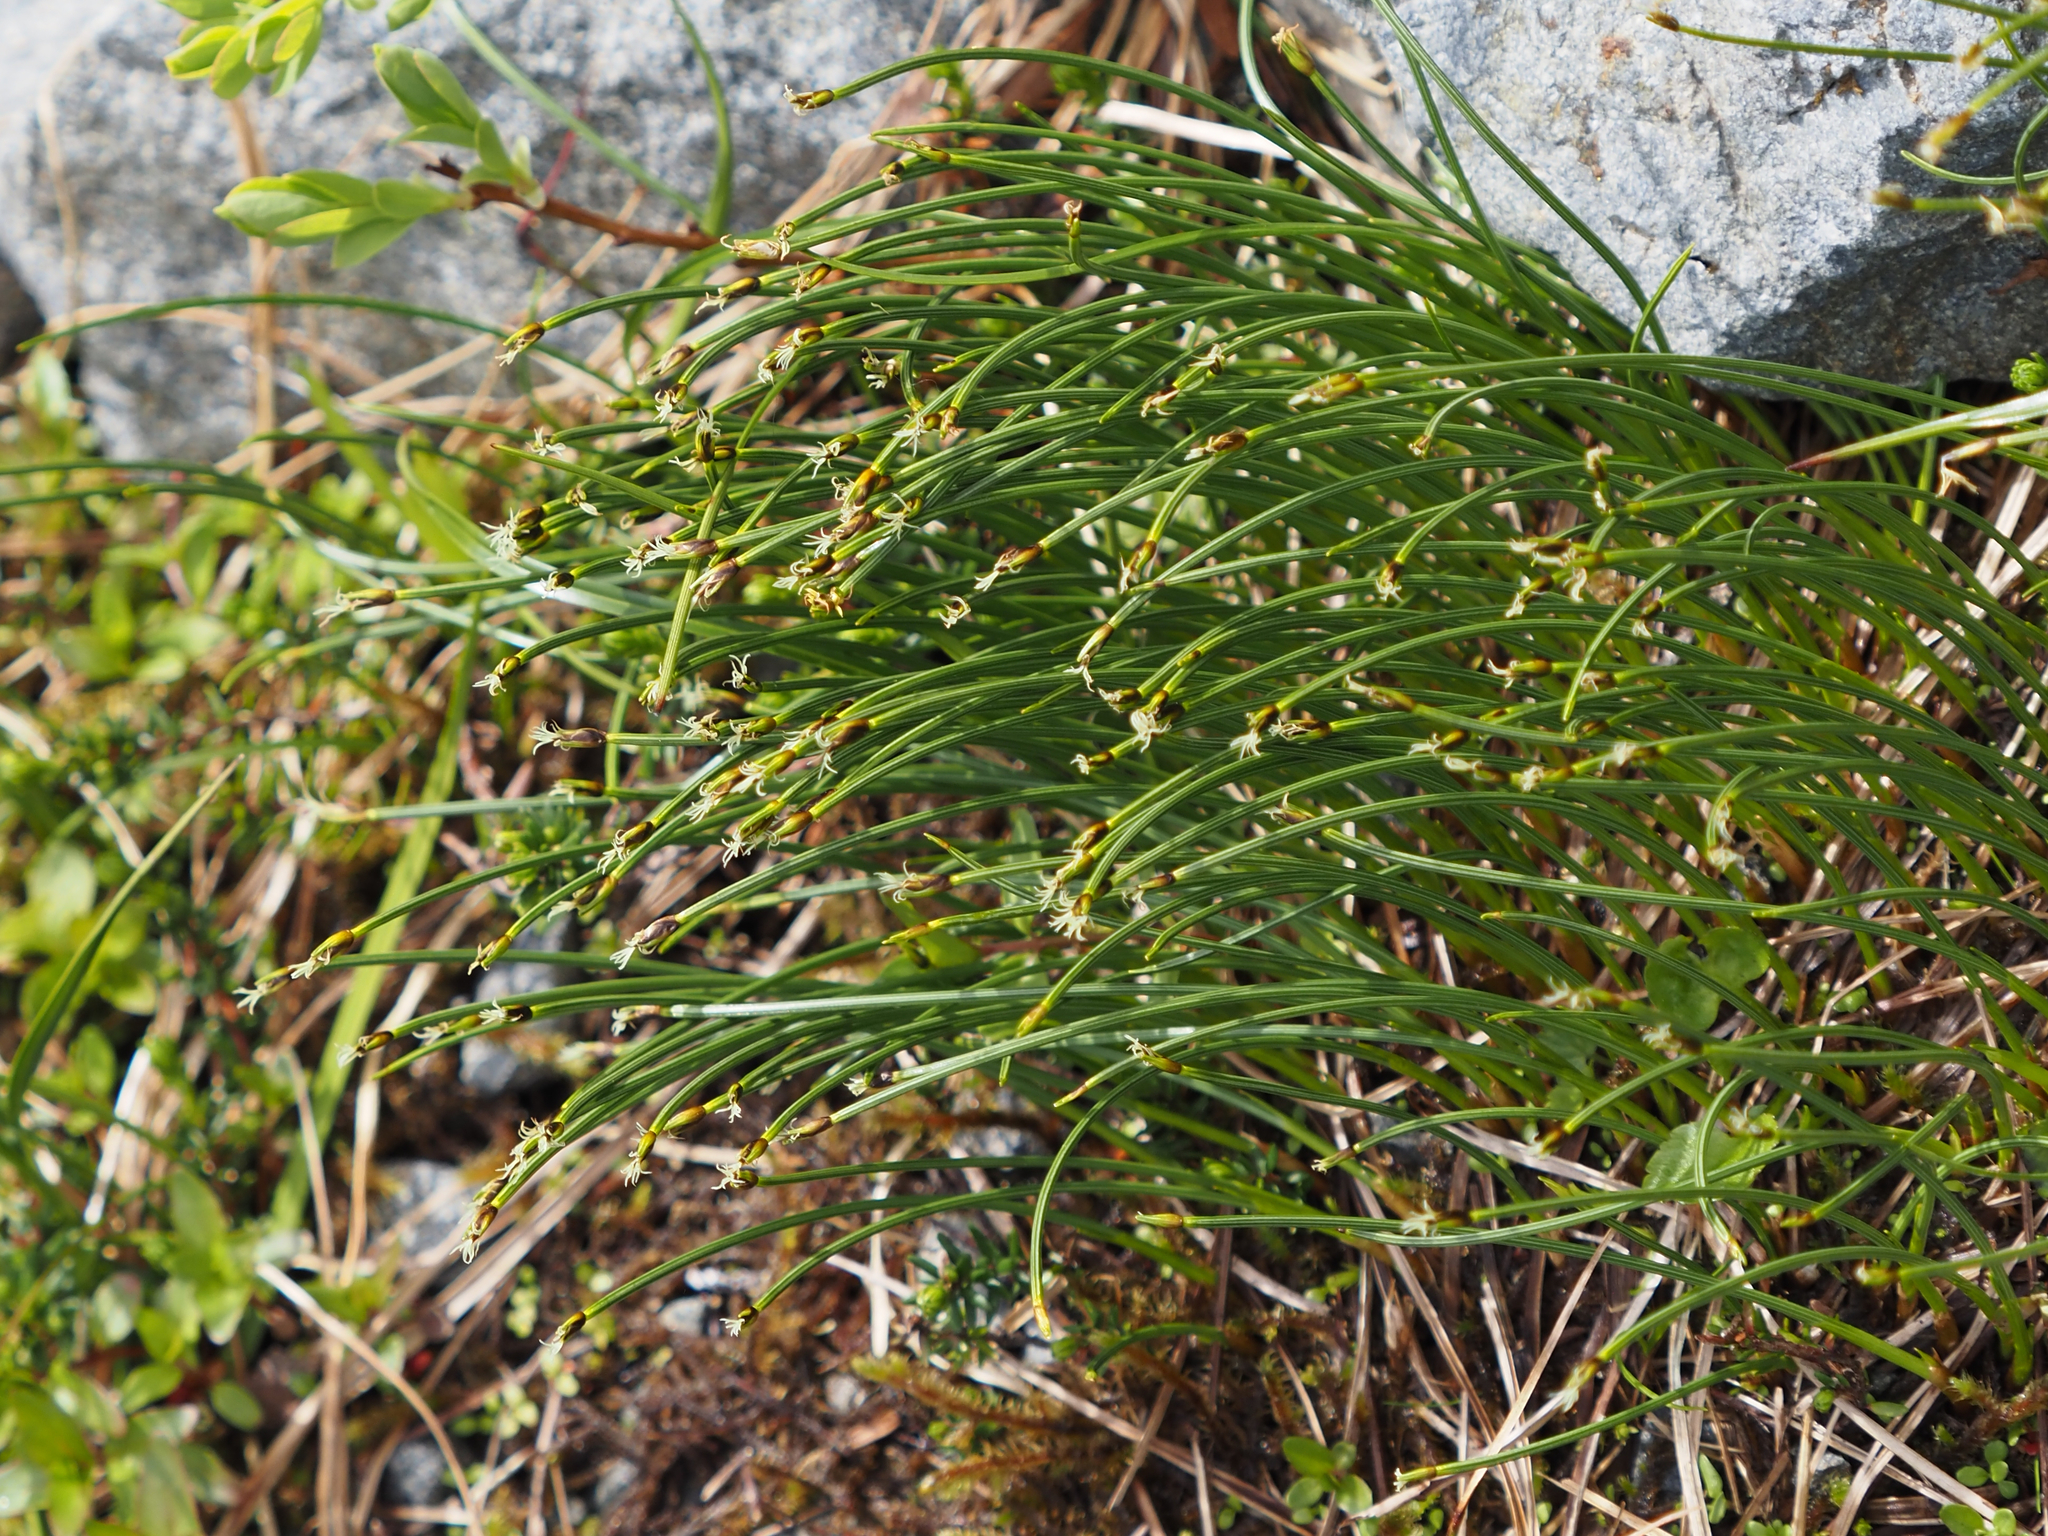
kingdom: Plantae
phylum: Tracheophyta
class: Liliopsida
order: Poales
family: Cyperaceae
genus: Trichophorum
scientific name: Trichophorum cespitosum
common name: Cespitose bulrush
